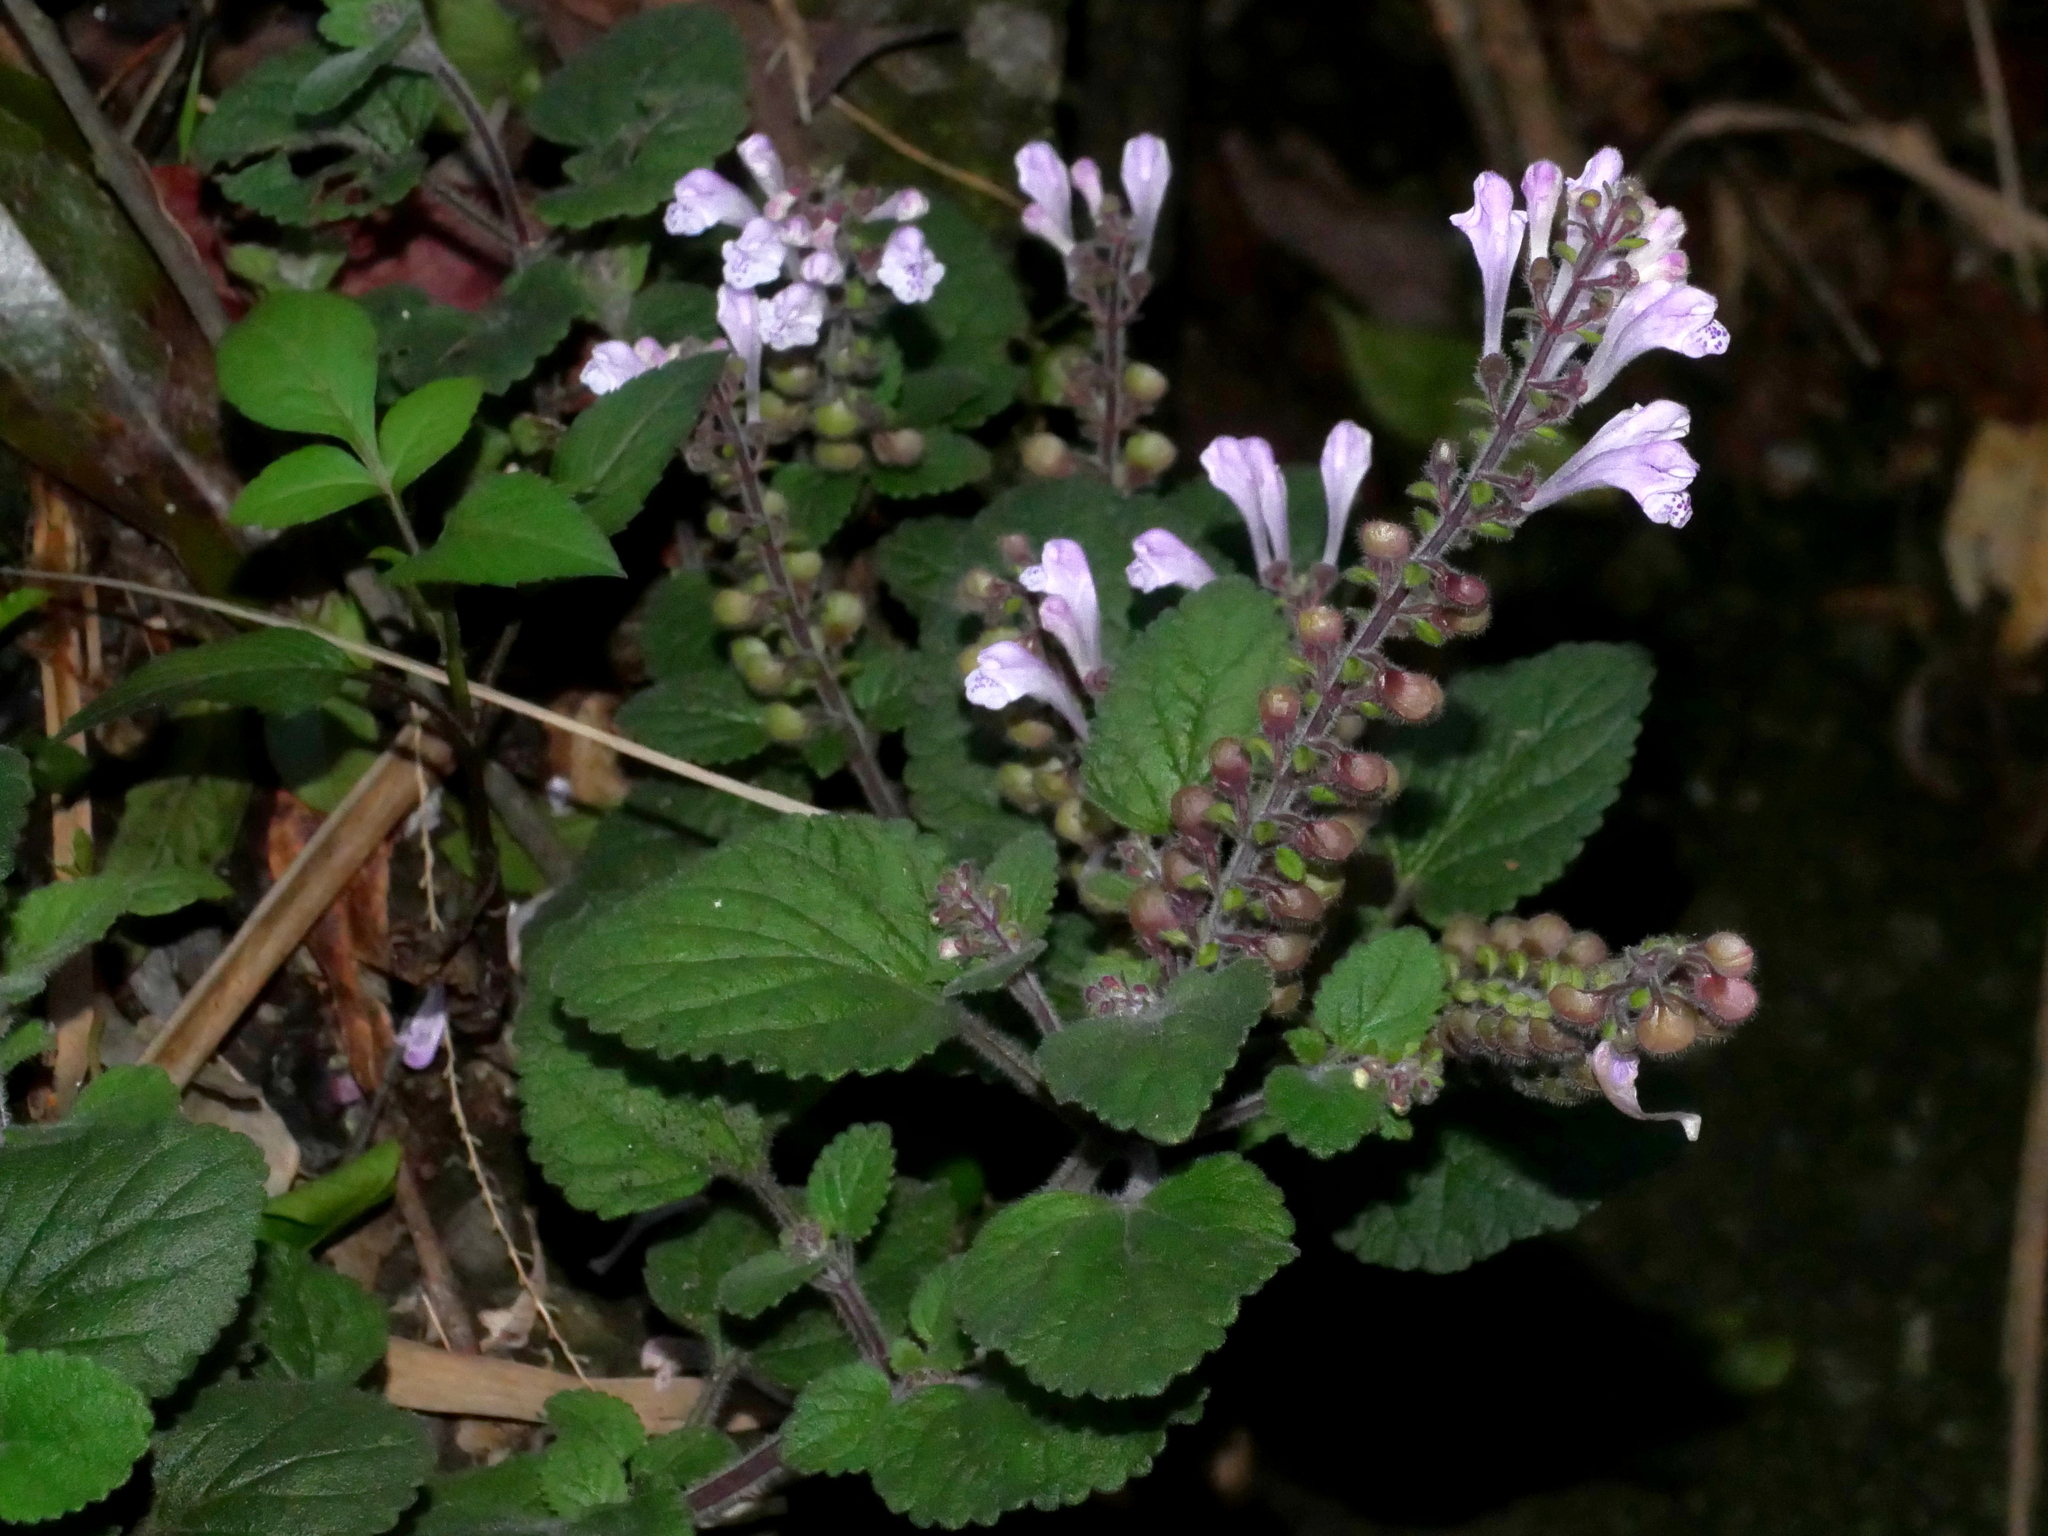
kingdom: Plantae
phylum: Tracheophyta
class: Magnoliopsida
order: Lamiales
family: Lamiaceae
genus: Scutellaria
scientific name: Scutellaria indica
